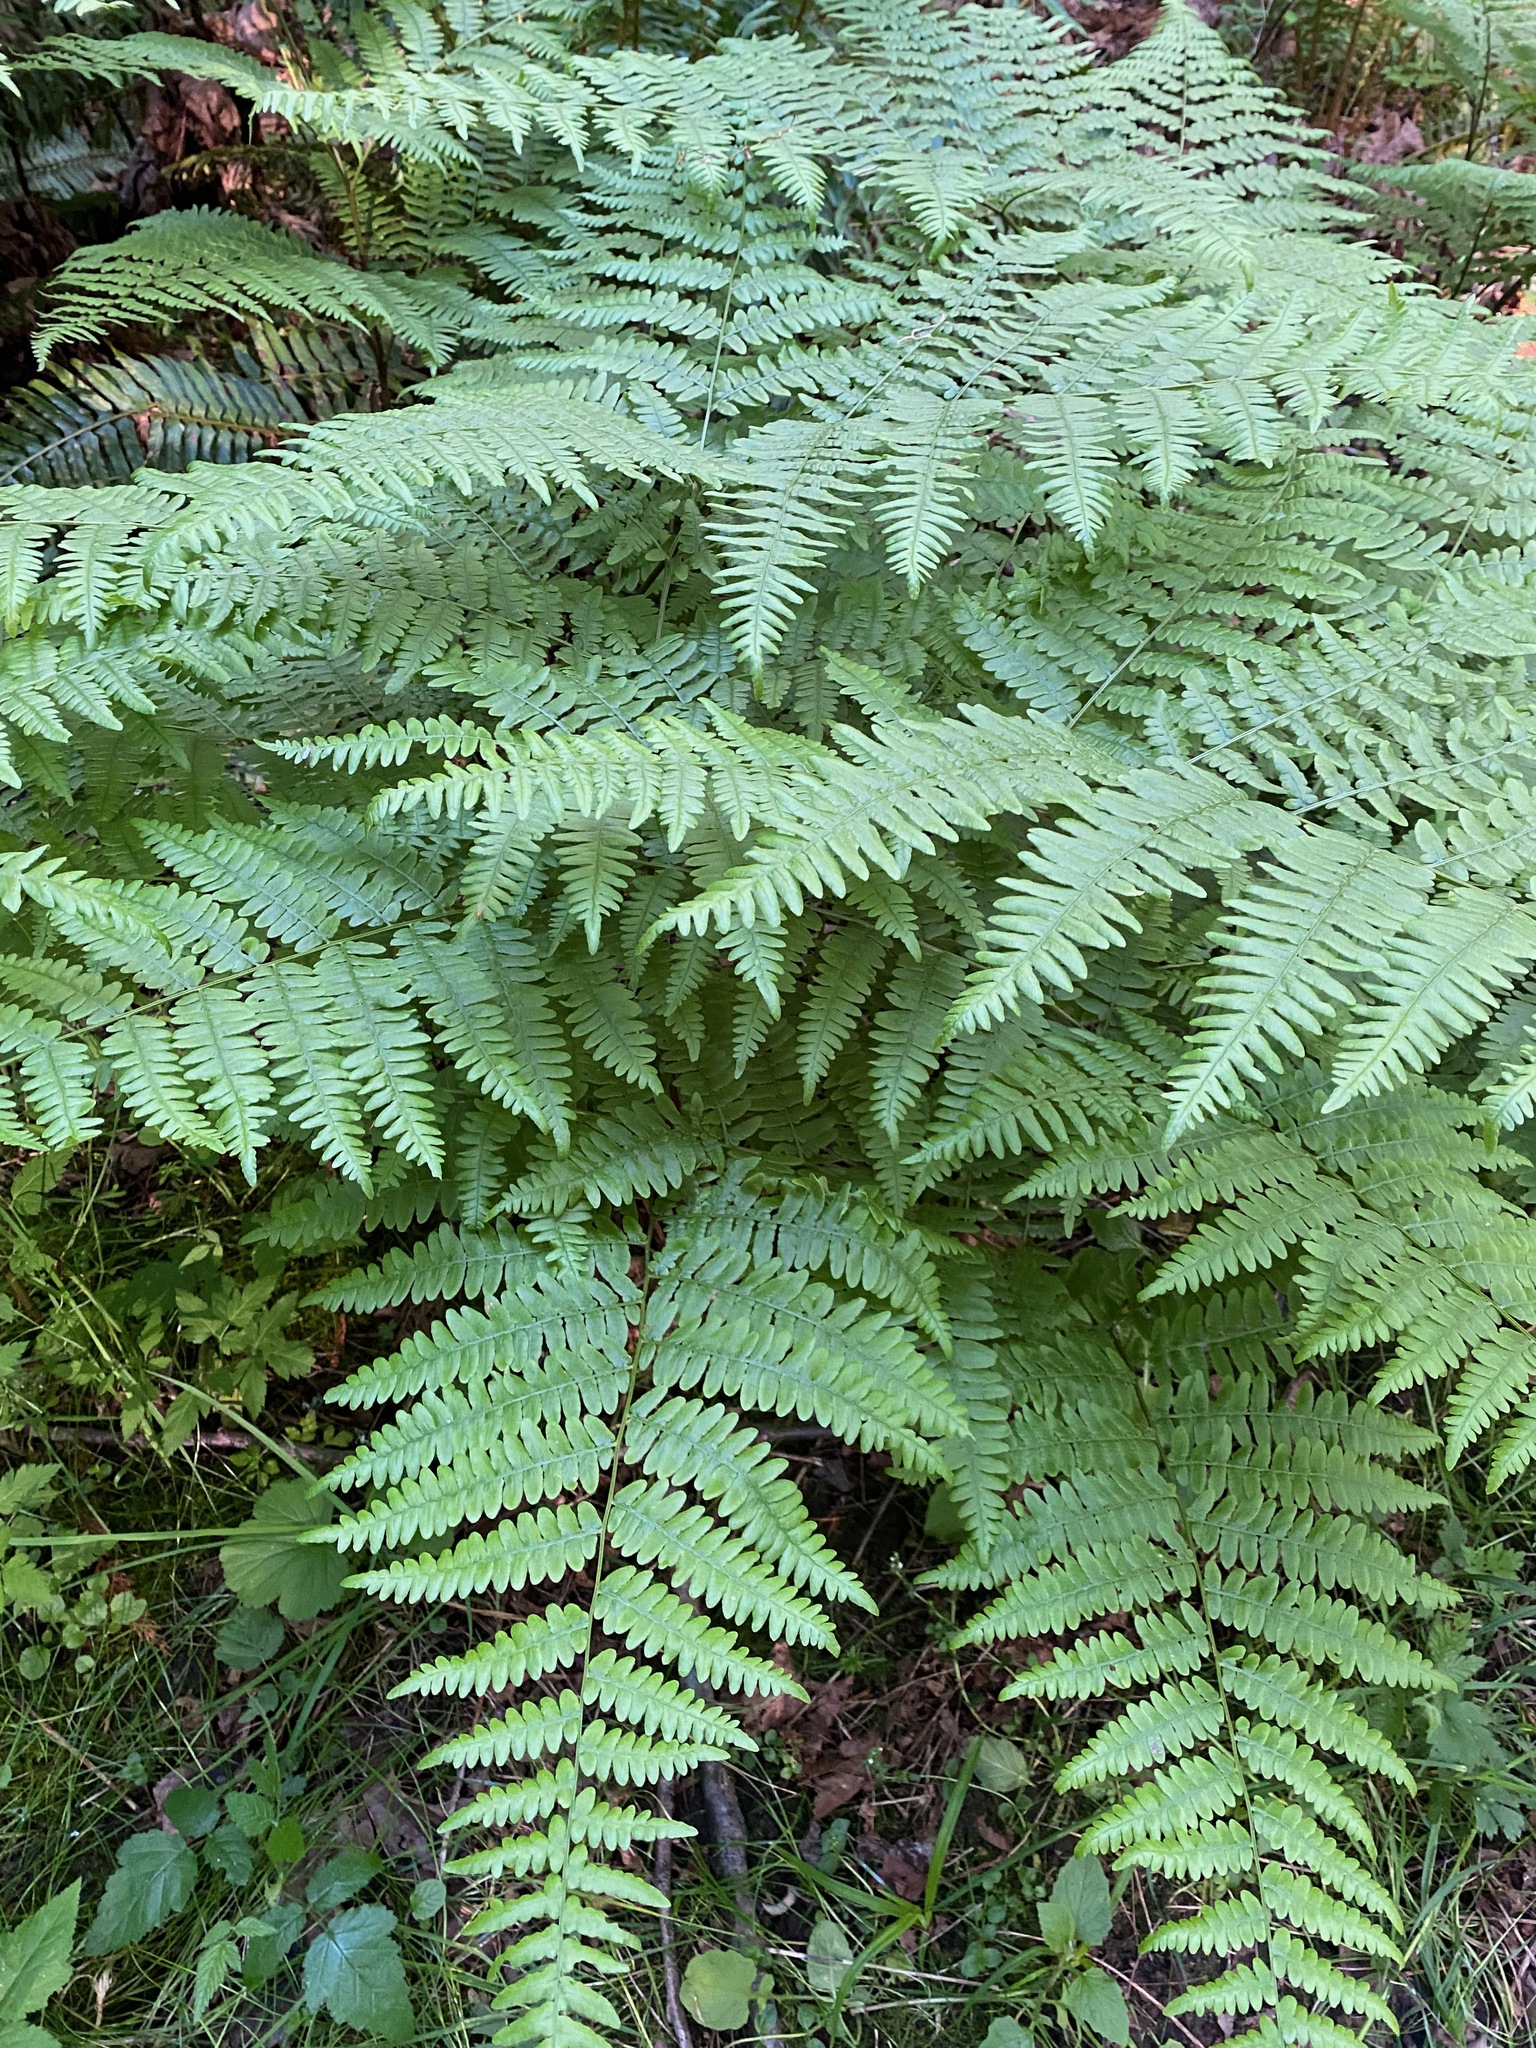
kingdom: Plantae
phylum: Tracheophyta
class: Polypodiopsida
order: Polypodiales
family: Dennstaedtiaceae
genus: Pteridium
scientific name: Pteridium aquilinum
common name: Bracken
